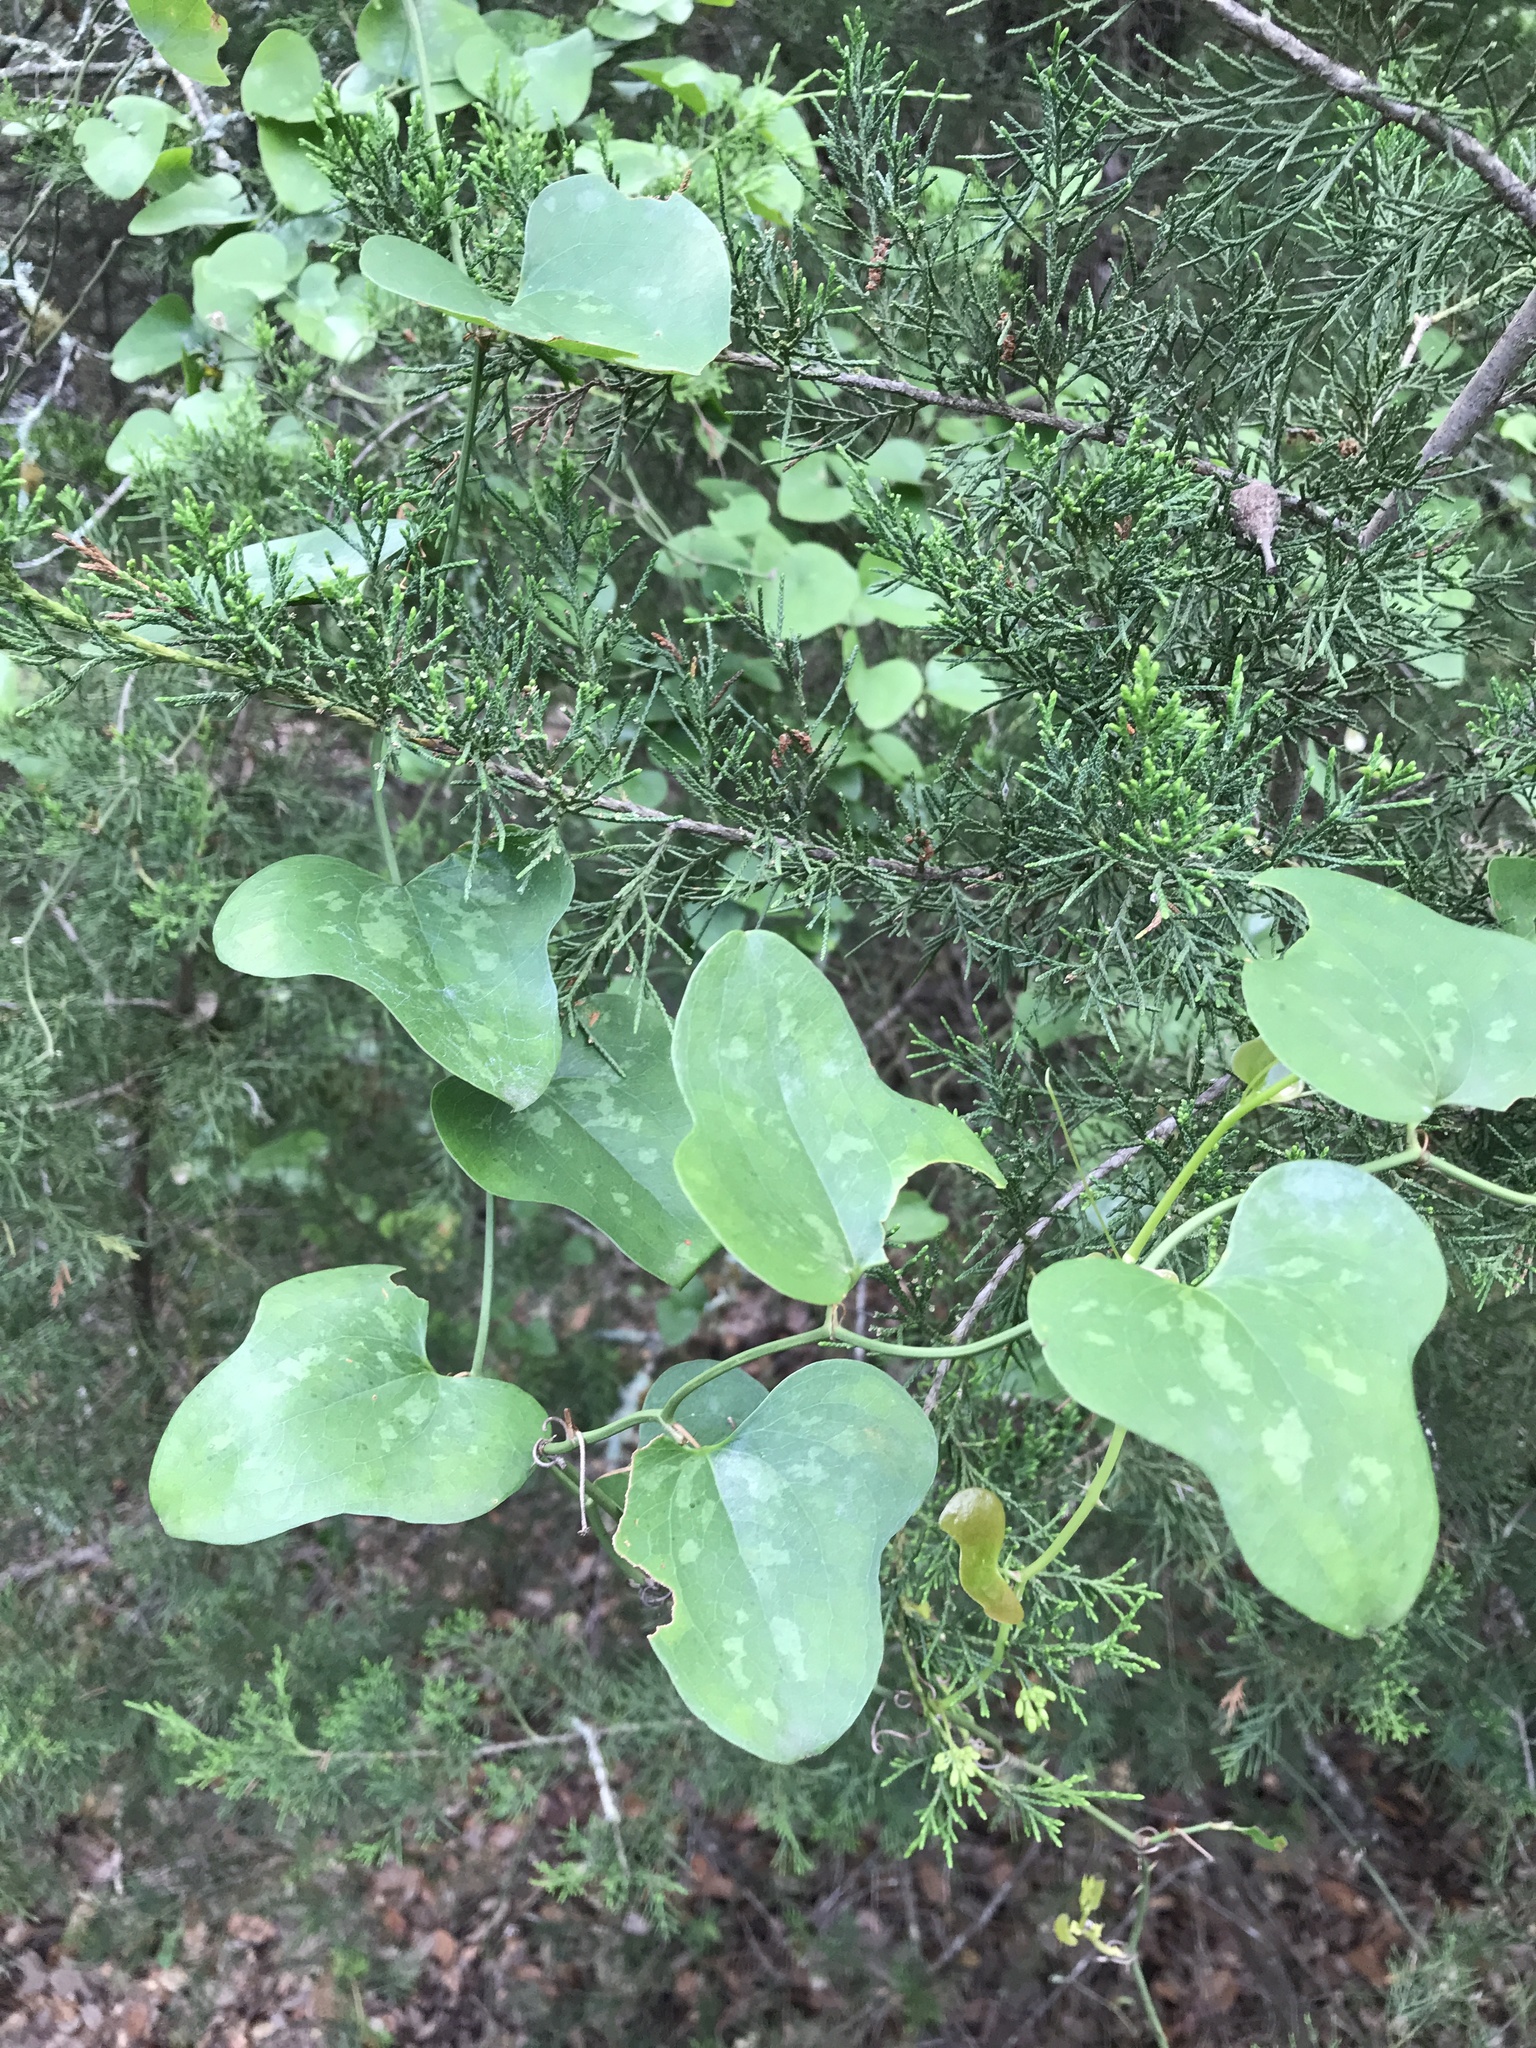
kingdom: Plantae
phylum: Tracheophyta
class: Liliopsida
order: Liliales
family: Smilacaceae
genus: Smilax
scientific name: Smilax bona-nox
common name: Catbrier
